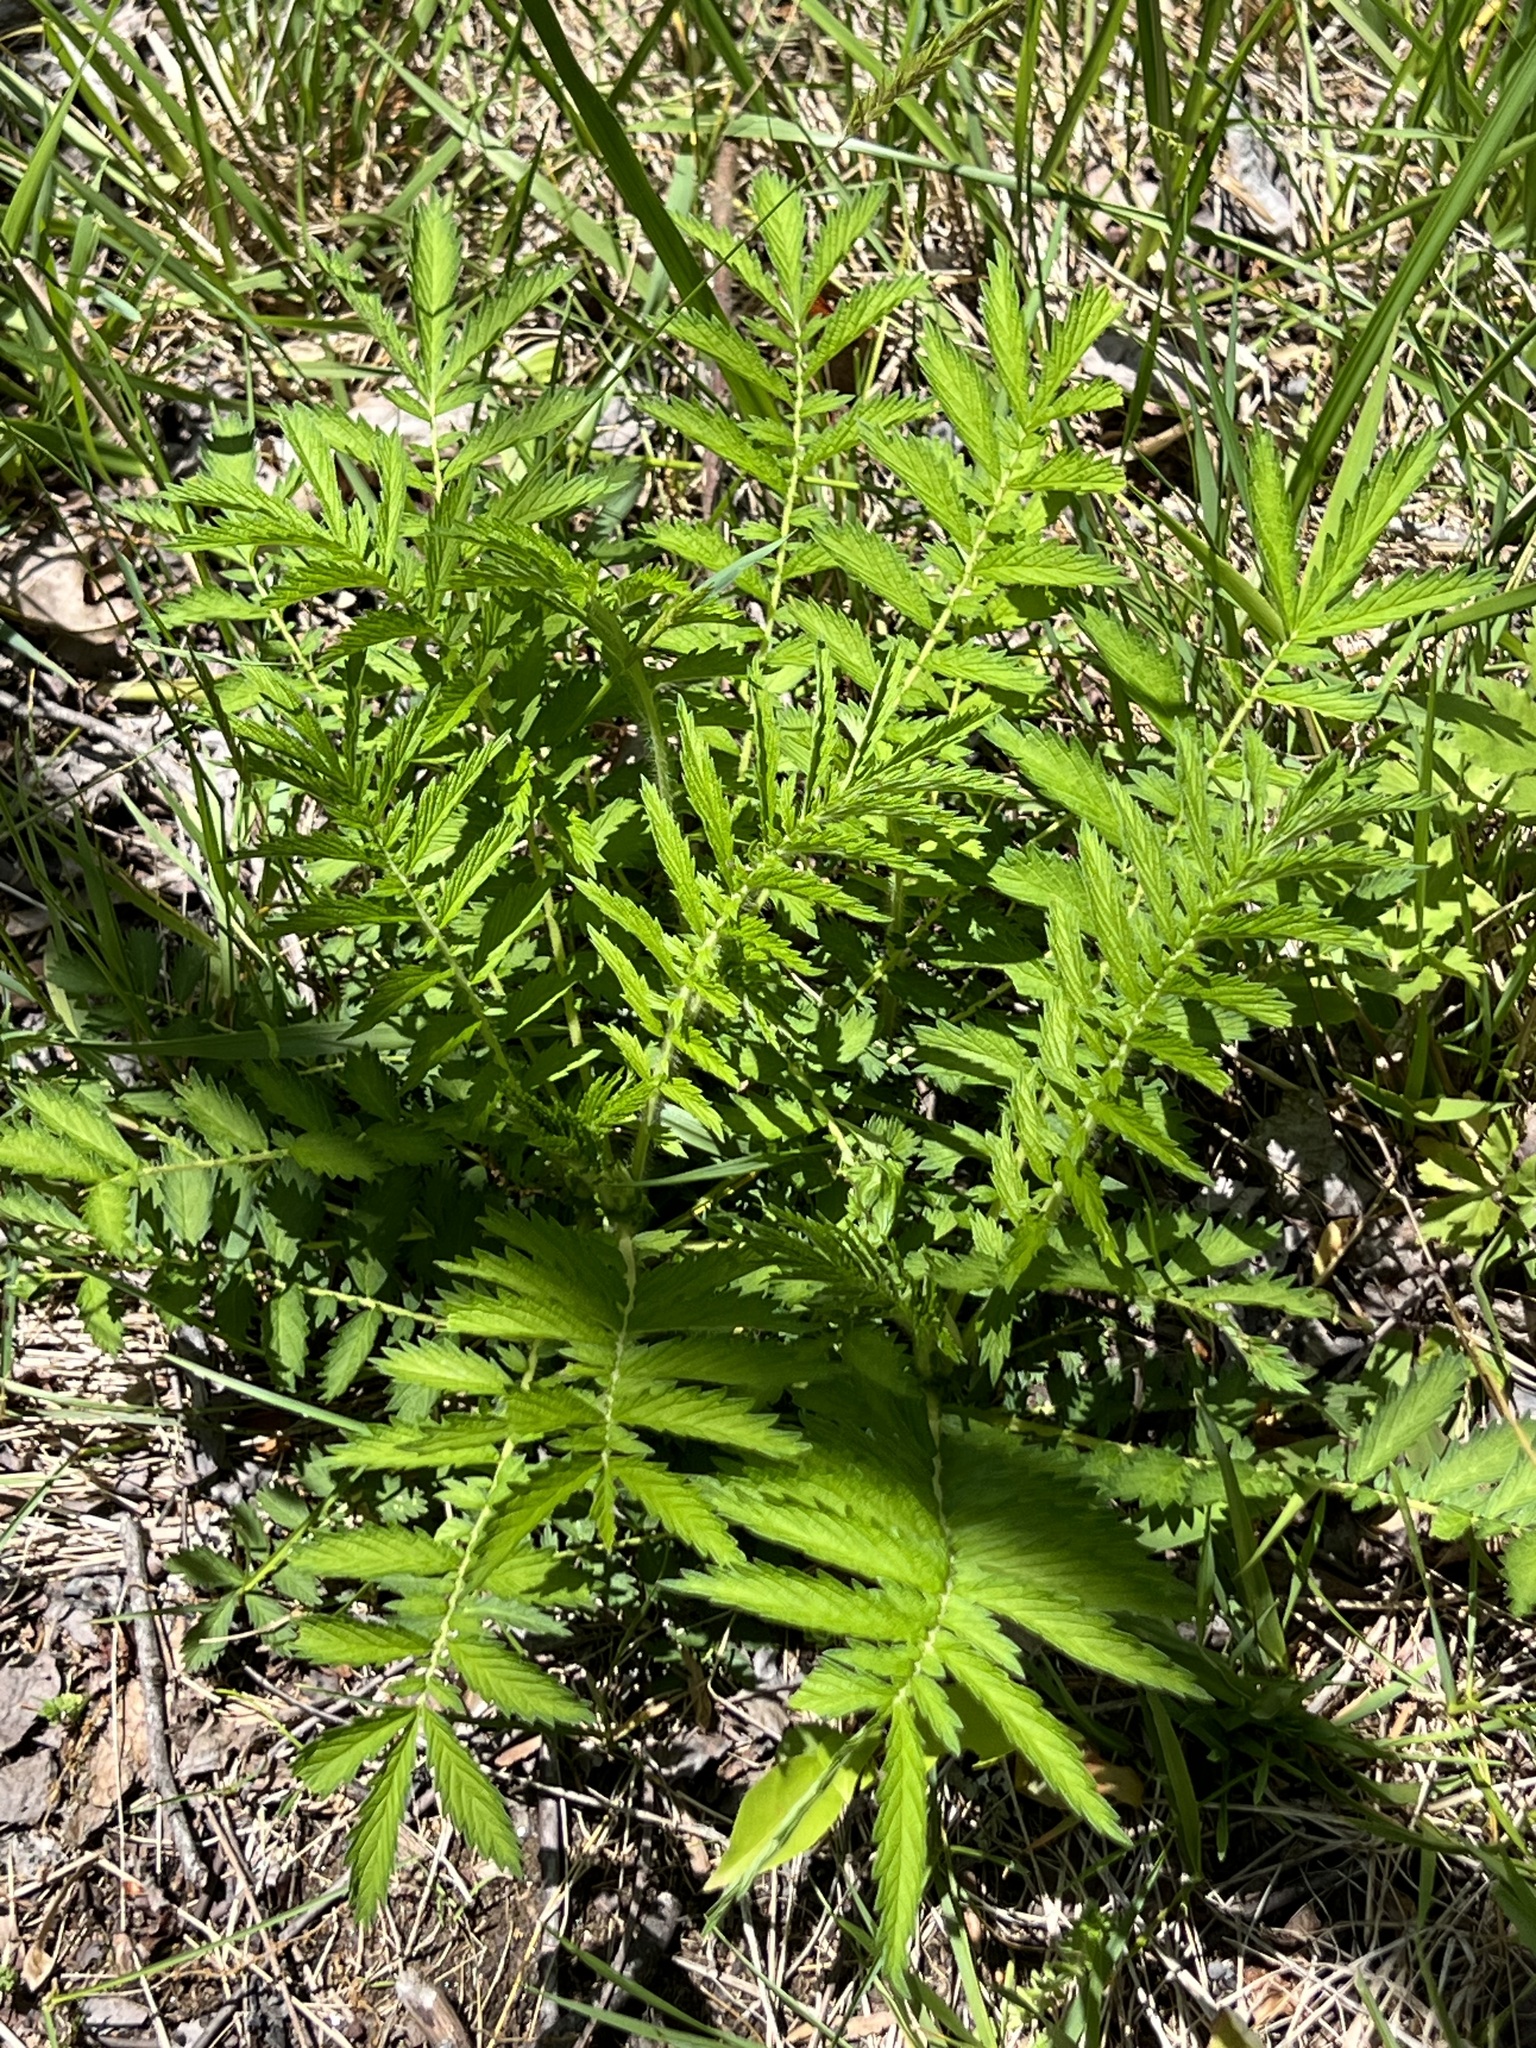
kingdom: Plantae
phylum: Tracheophyta
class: Magnoliopsida
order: Rosales
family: Rosaceae
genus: Agrimonia
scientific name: Agrimonia parviflora
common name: Harvest-lice
